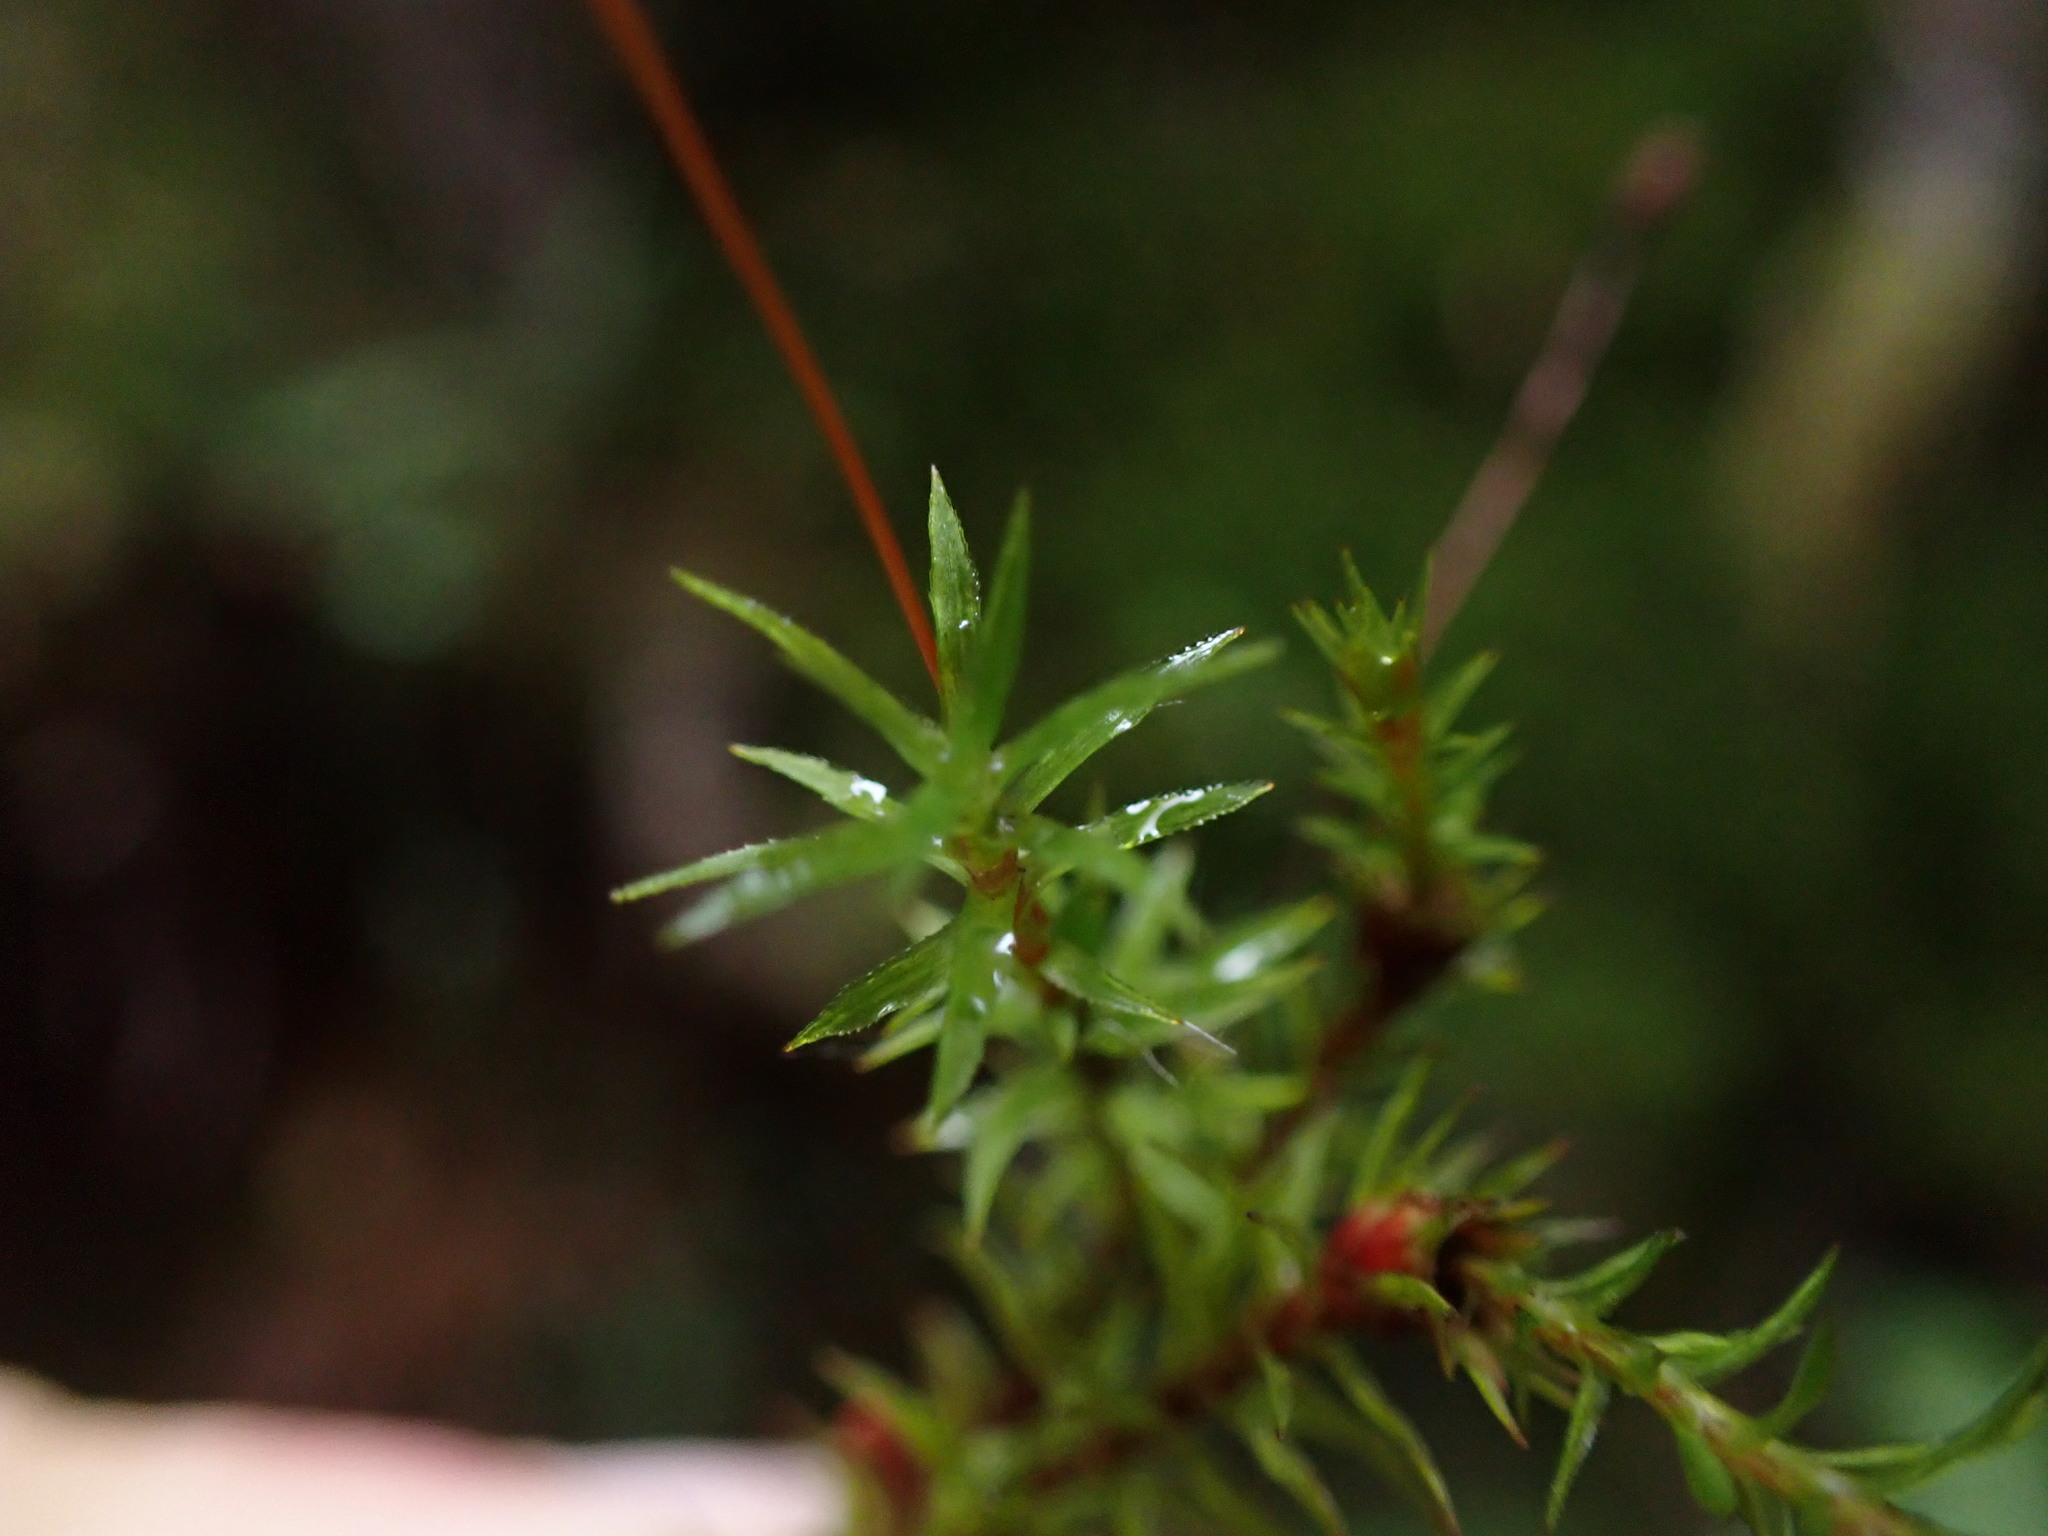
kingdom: Plantae
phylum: Bryophyta
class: Polytrichopsida
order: Polytrichales
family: Polytrichaceae
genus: Pogonatum
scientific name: Pogonatum contortum
